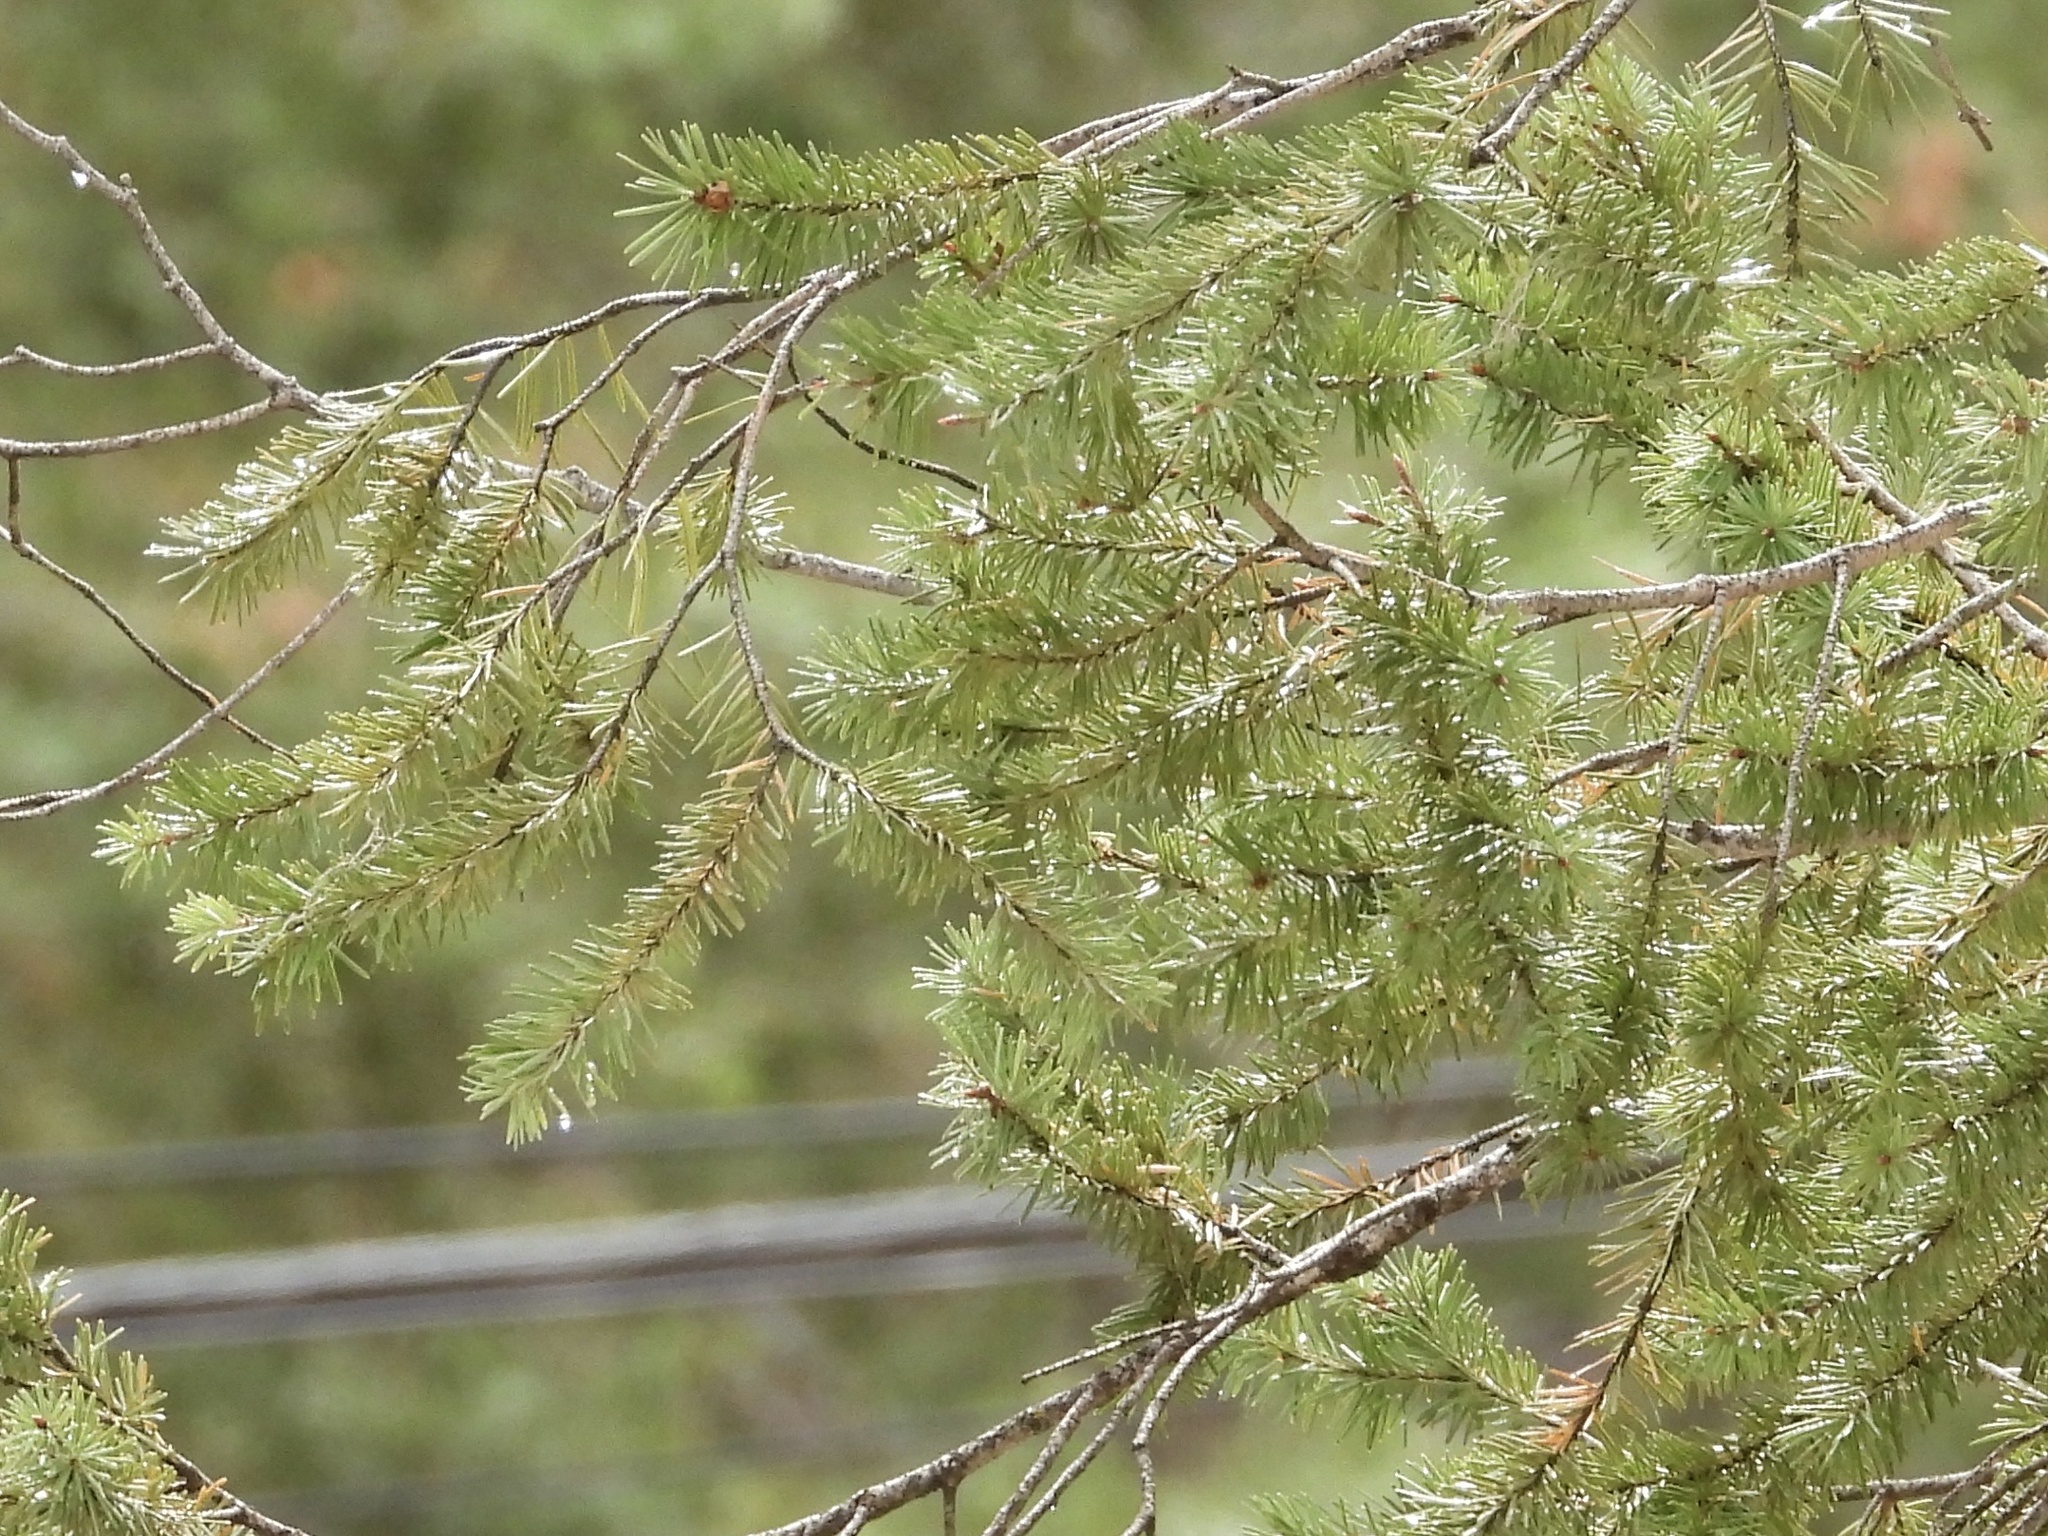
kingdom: Plantae
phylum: Tracheophyta
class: Pinopsida
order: Pinales
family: Pinaceae
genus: Pseudotsuga
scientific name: Pseudotsuga menziesii
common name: Douglas fir
